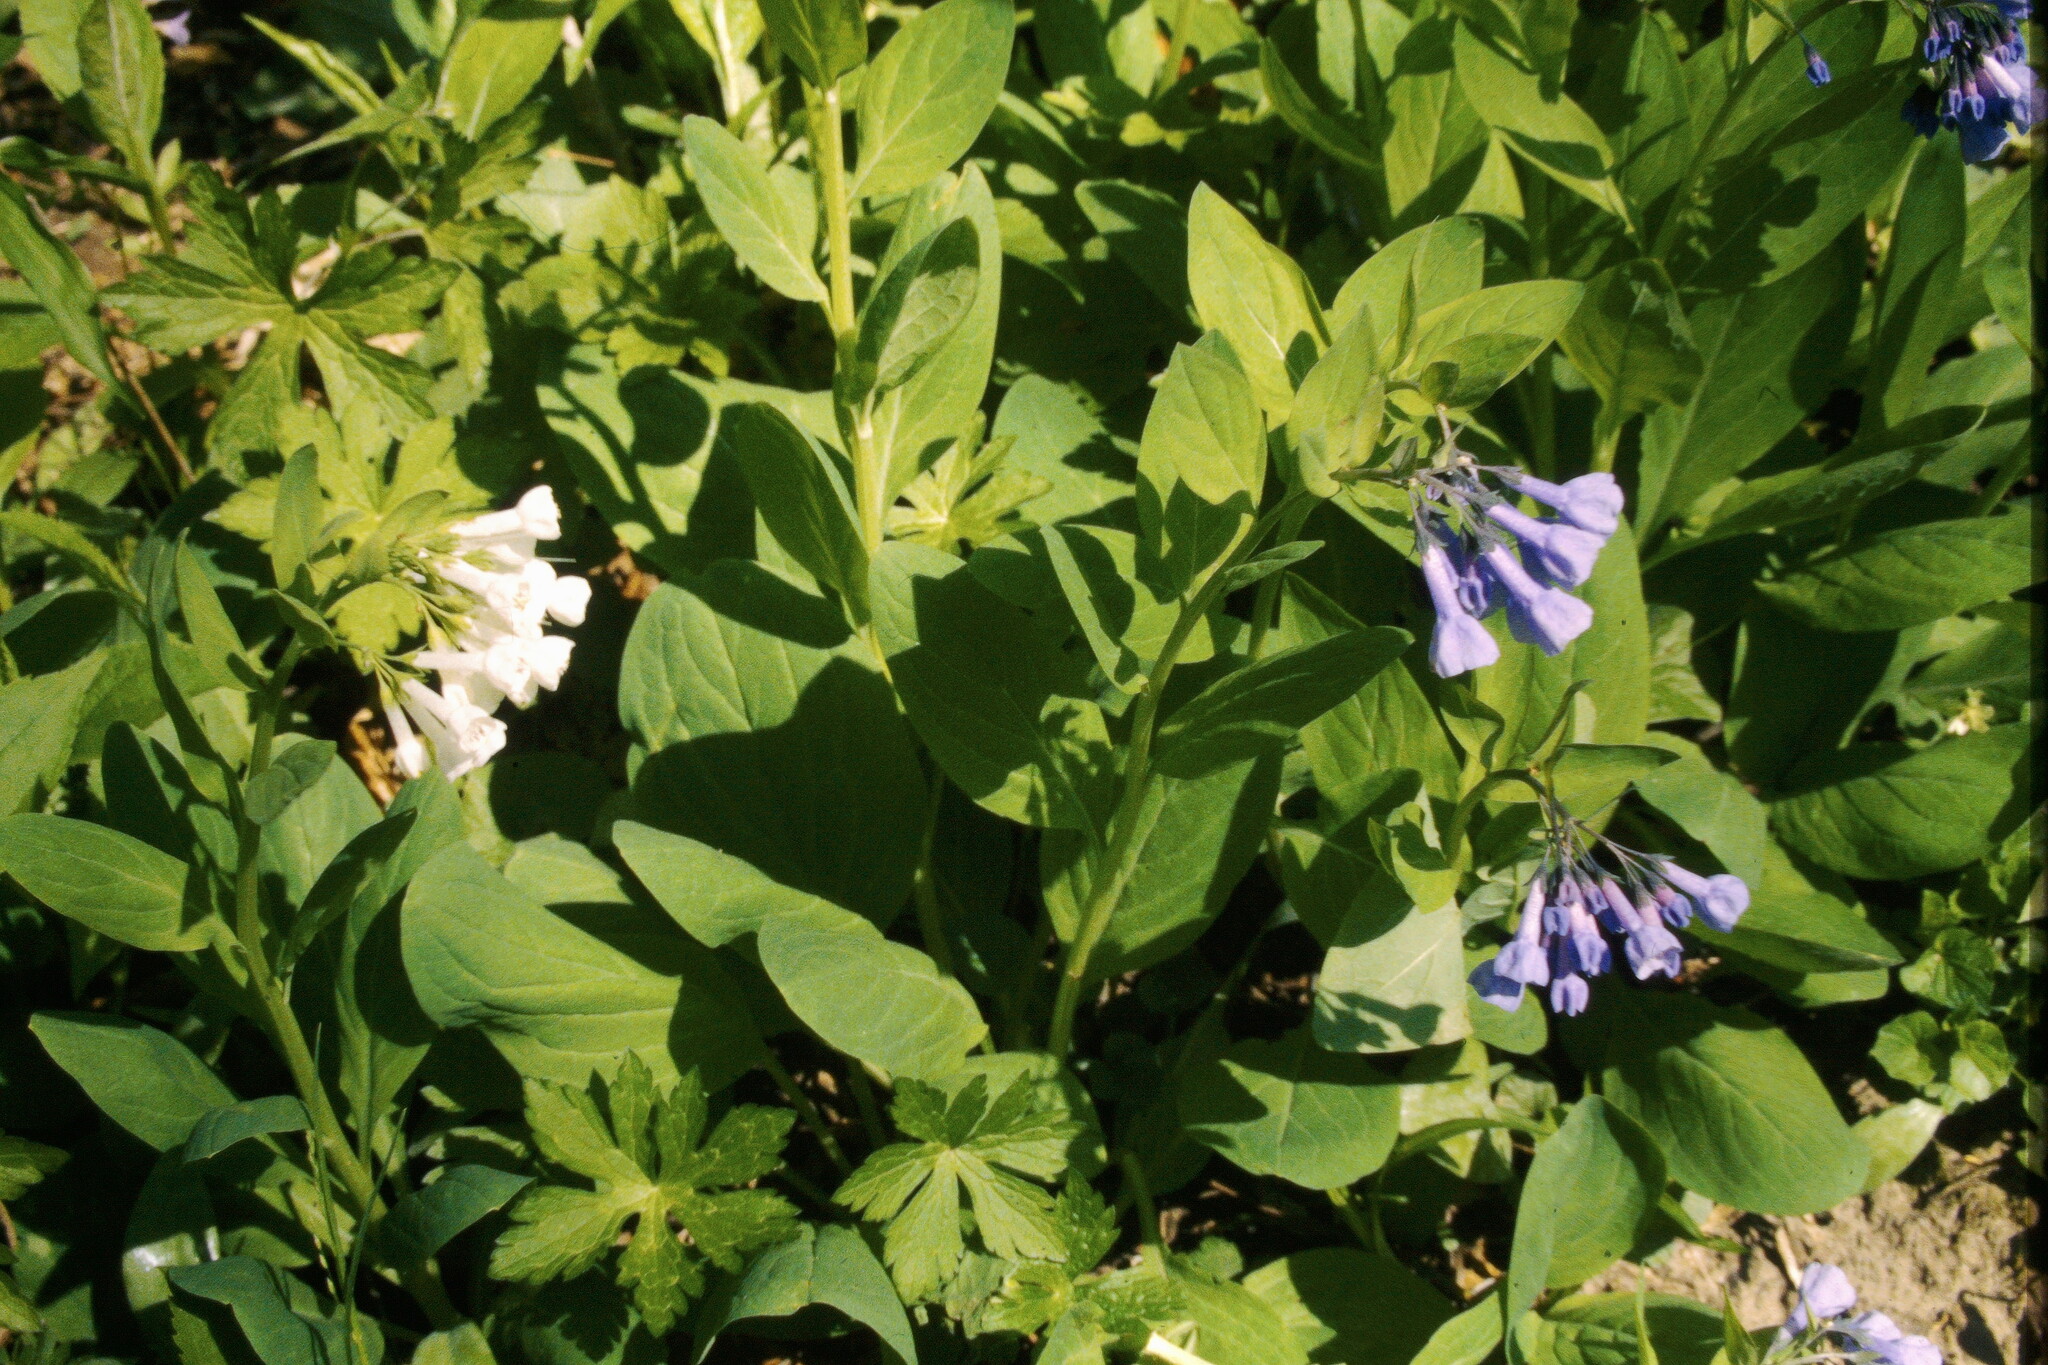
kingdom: Plantae
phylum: Tracheophyta
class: Magnoliopsida
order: Boraginales
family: Boraginaceae
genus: Mertensia
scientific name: Mertensia virginica
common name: Virginia bluebells
